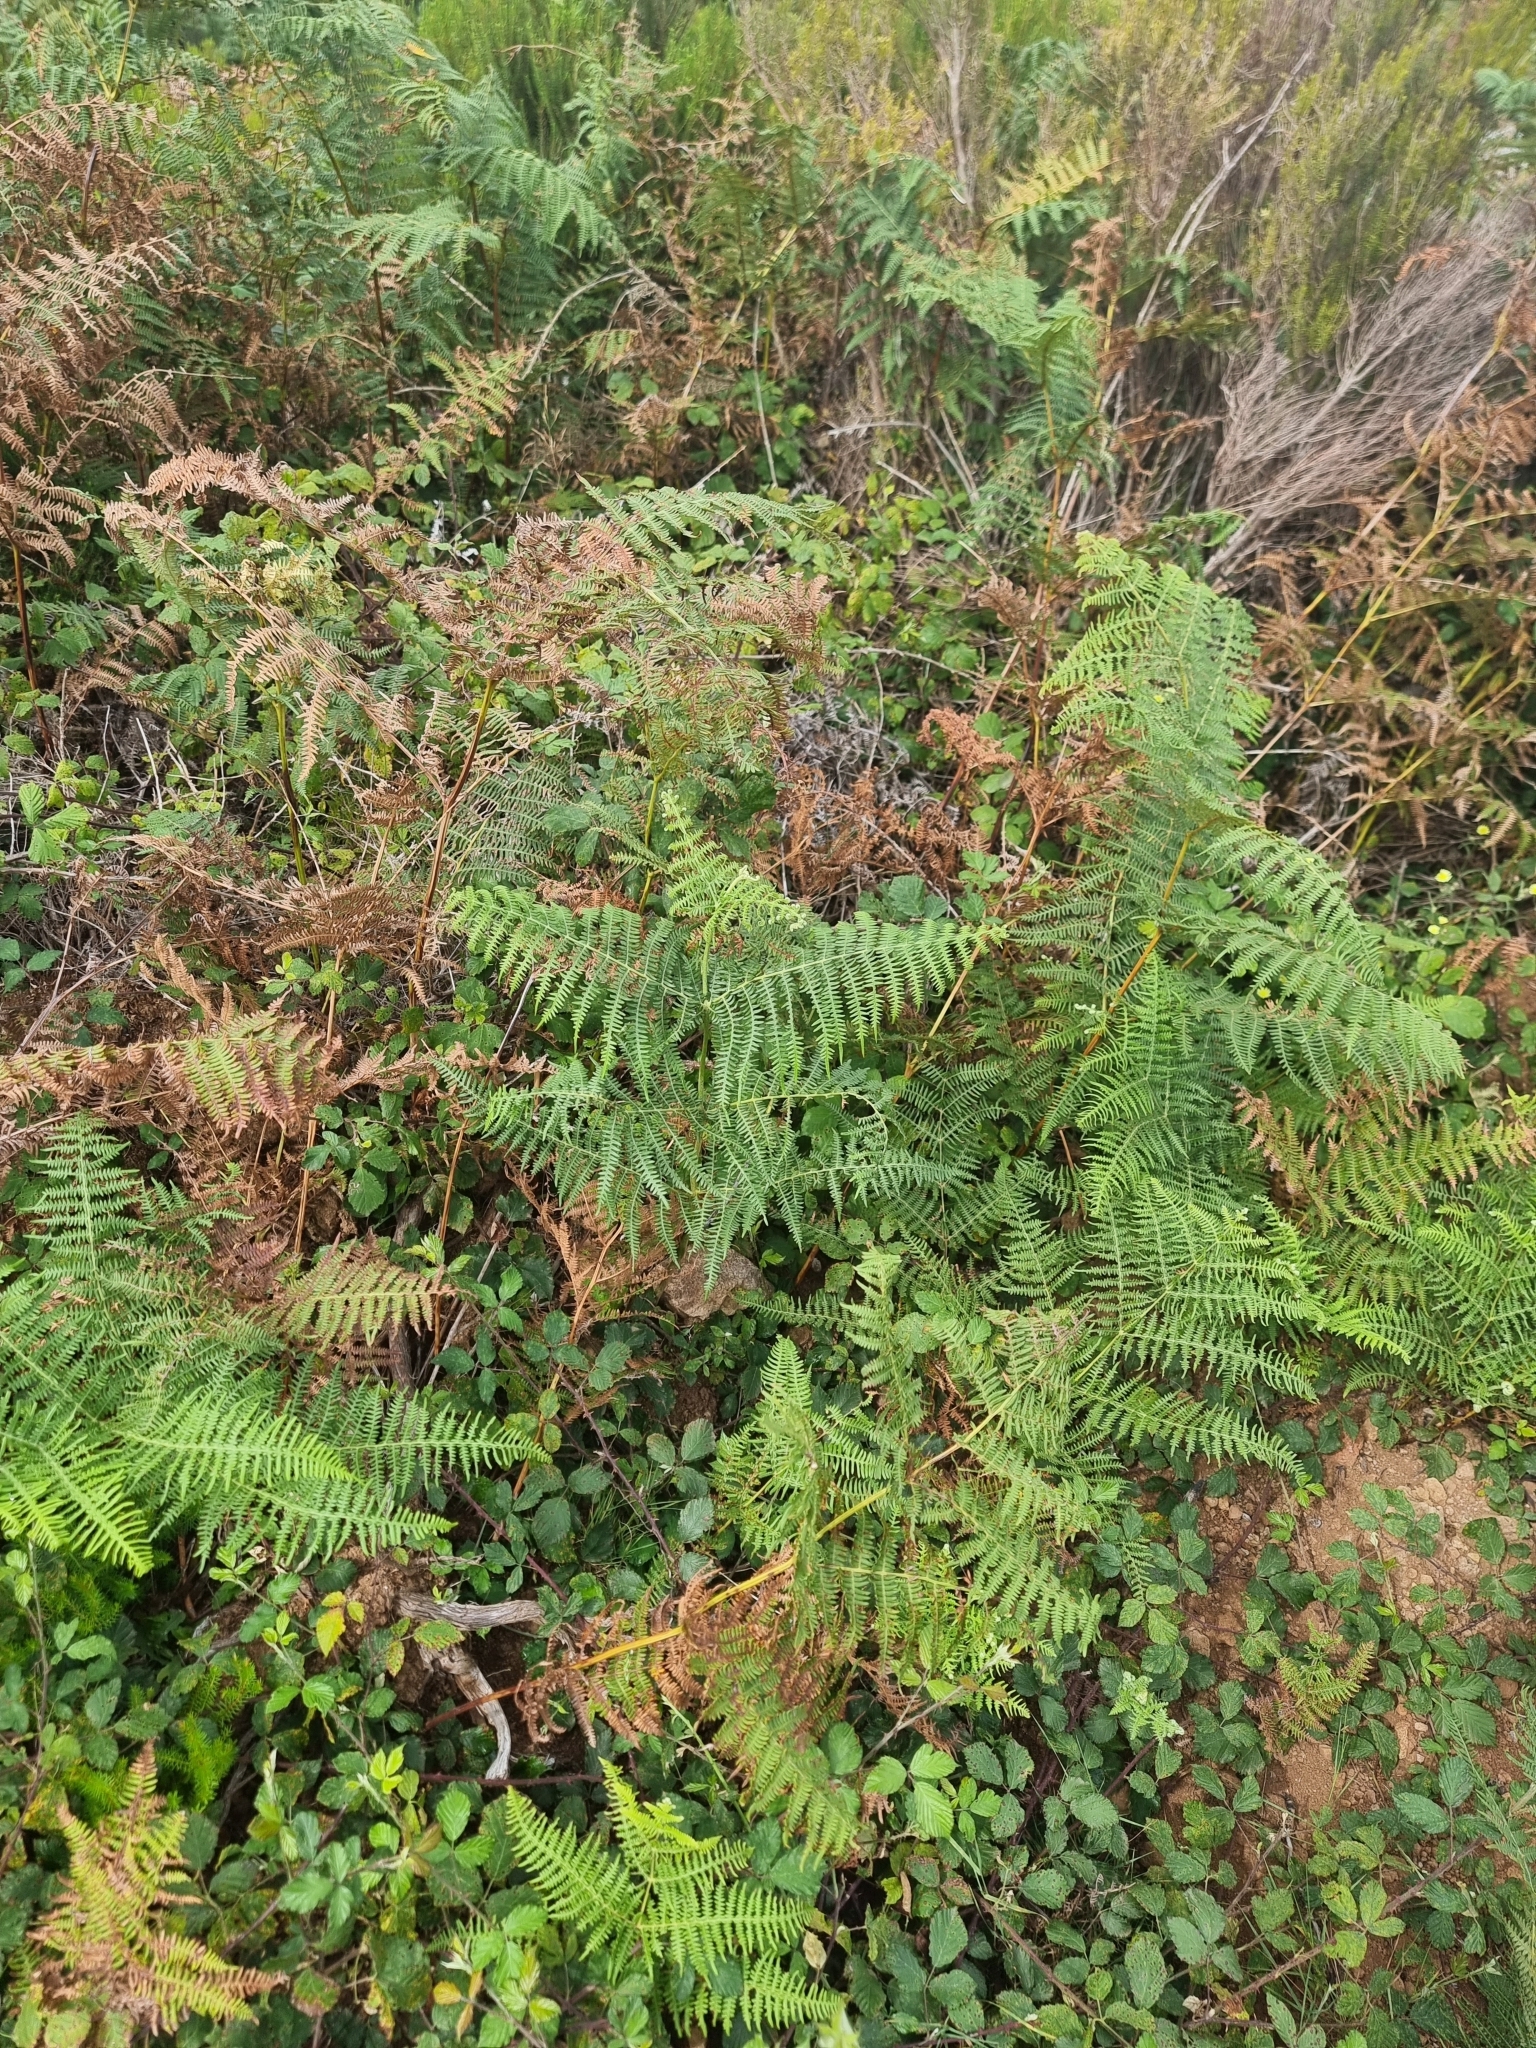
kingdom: Plantae
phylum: Tracheophyta
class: Polypodiopsida
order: Polypodiales
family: Dennstaedtiaceae
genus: Pteridium
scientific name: Pteridium aquilinum
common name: Bracken
